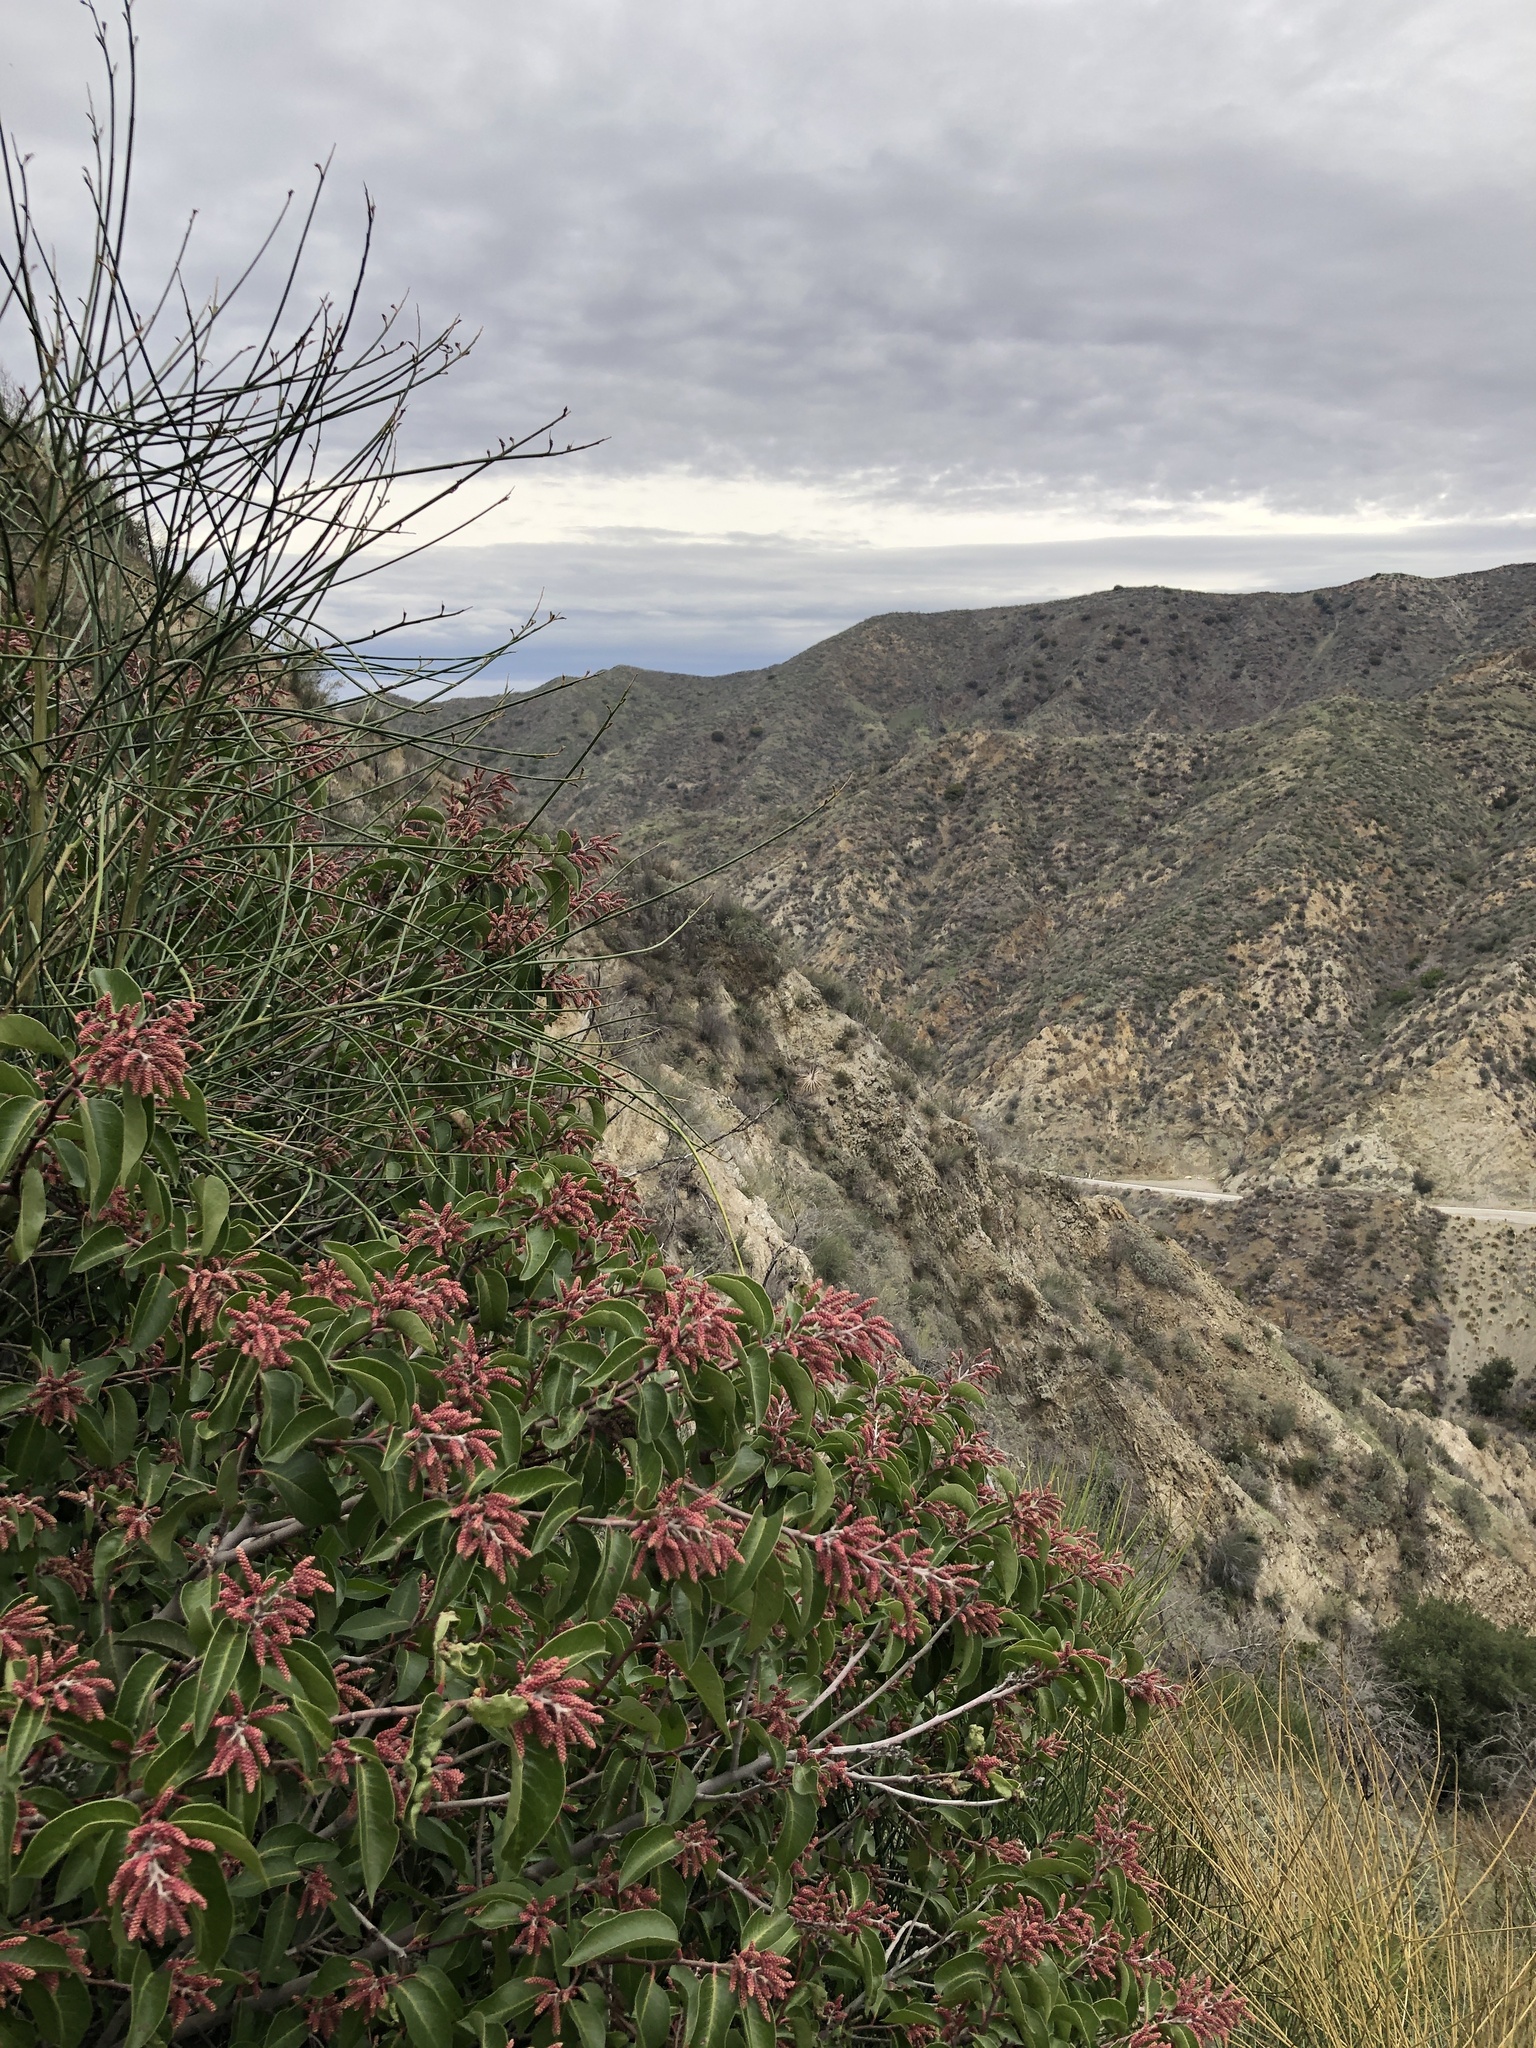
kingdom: Plantae
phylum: Tracheophyta
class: Magnoliopsida
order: Sapindales
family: Anacardiaceae
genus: Rhus
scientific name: Rhus ovata
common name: Sugar sumac
